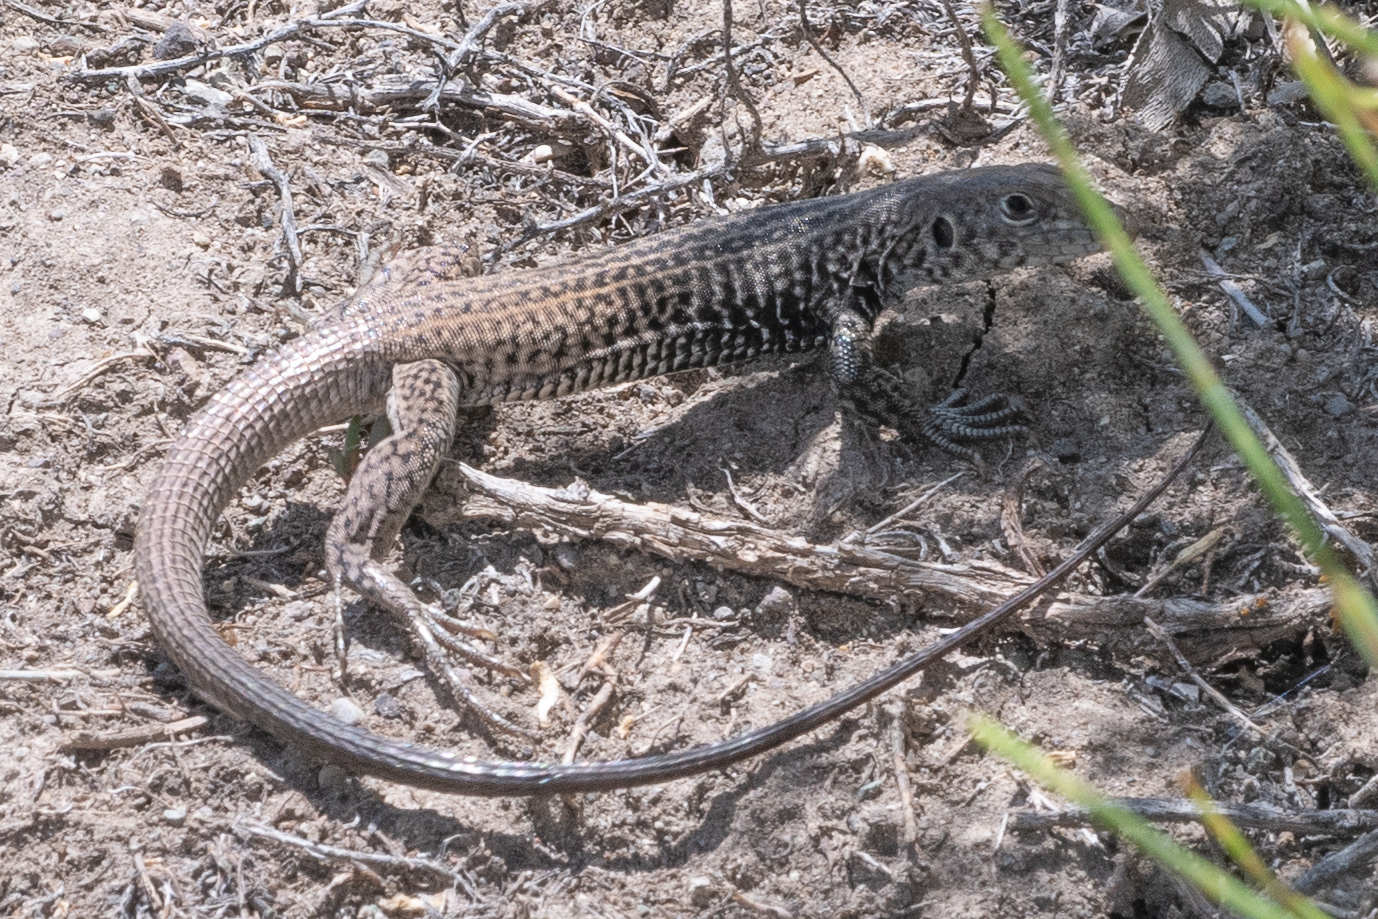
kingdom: Animalia
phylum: Chordata
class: Squamata
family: Teiidae
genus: Aspidoscelis
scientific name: Aspidoscelis tigris
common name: Tiger whiptail
